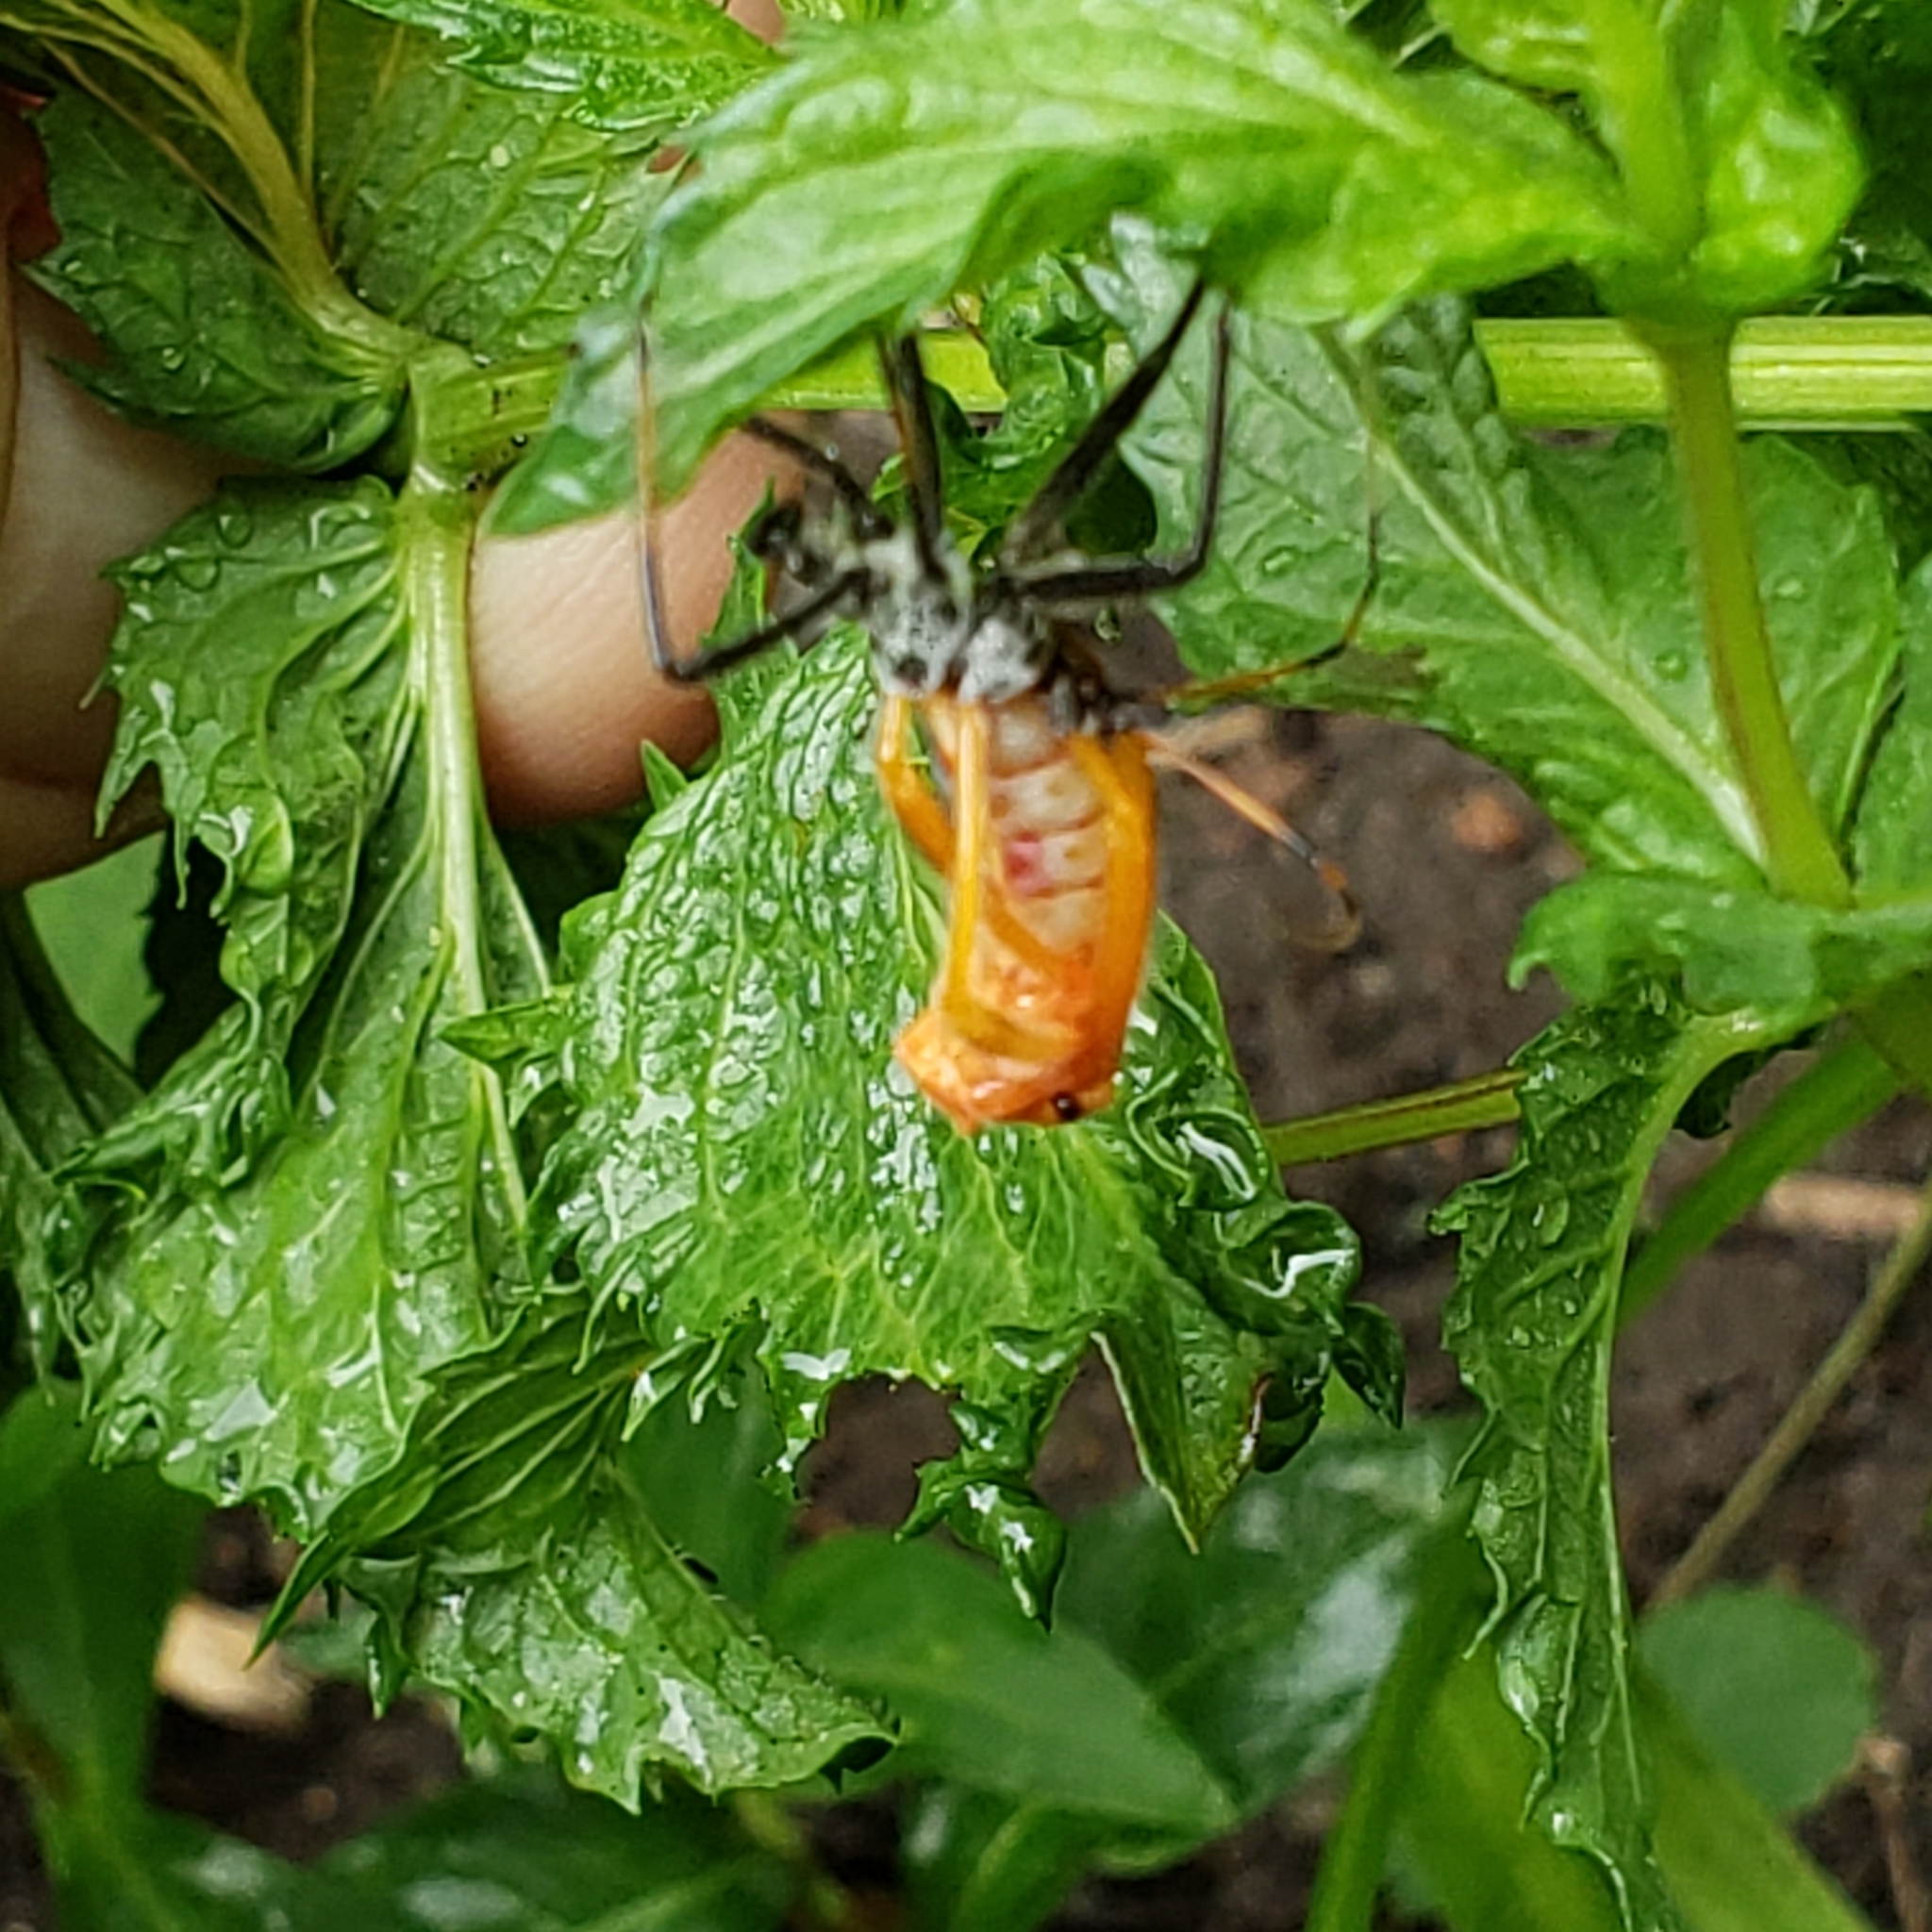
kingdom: Animalia
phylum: Arthropoda
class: Insecta
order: Hemiptera
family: Reduviidae
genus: Arilus
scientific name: Arilus cristatus
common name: North american wheel bug
